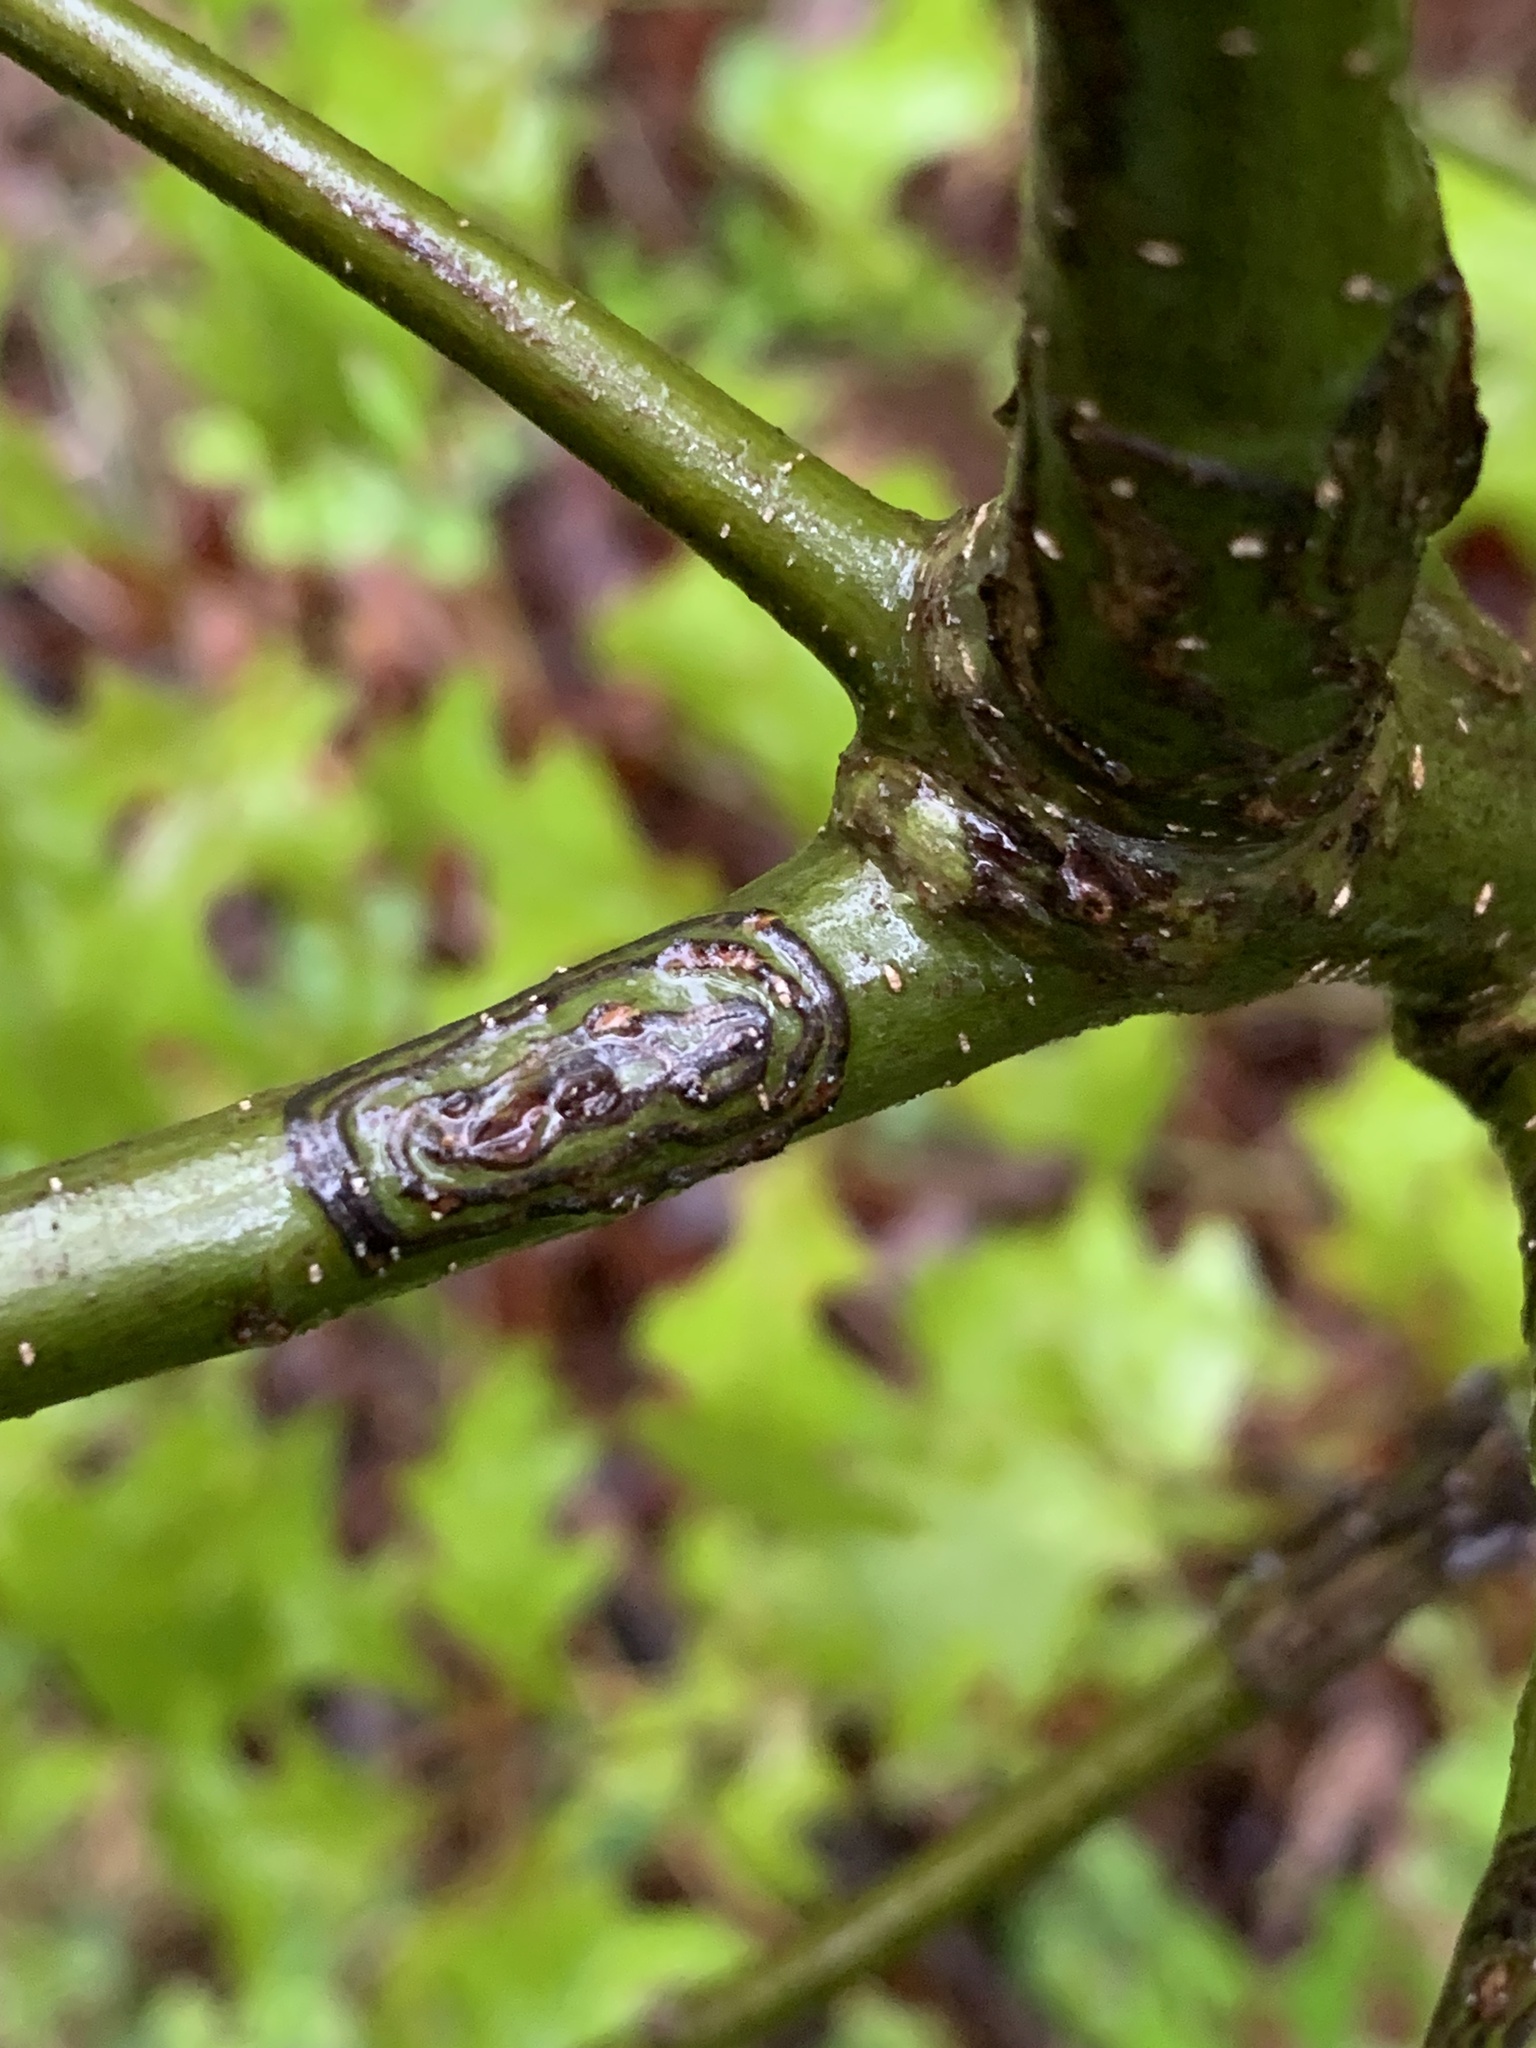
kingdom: Animalia
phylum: Arthropoda
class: Insecta
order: Lepidoptera
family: Nepticulidae
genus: Zimmermannia
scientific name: Zimmermannia bosquella
